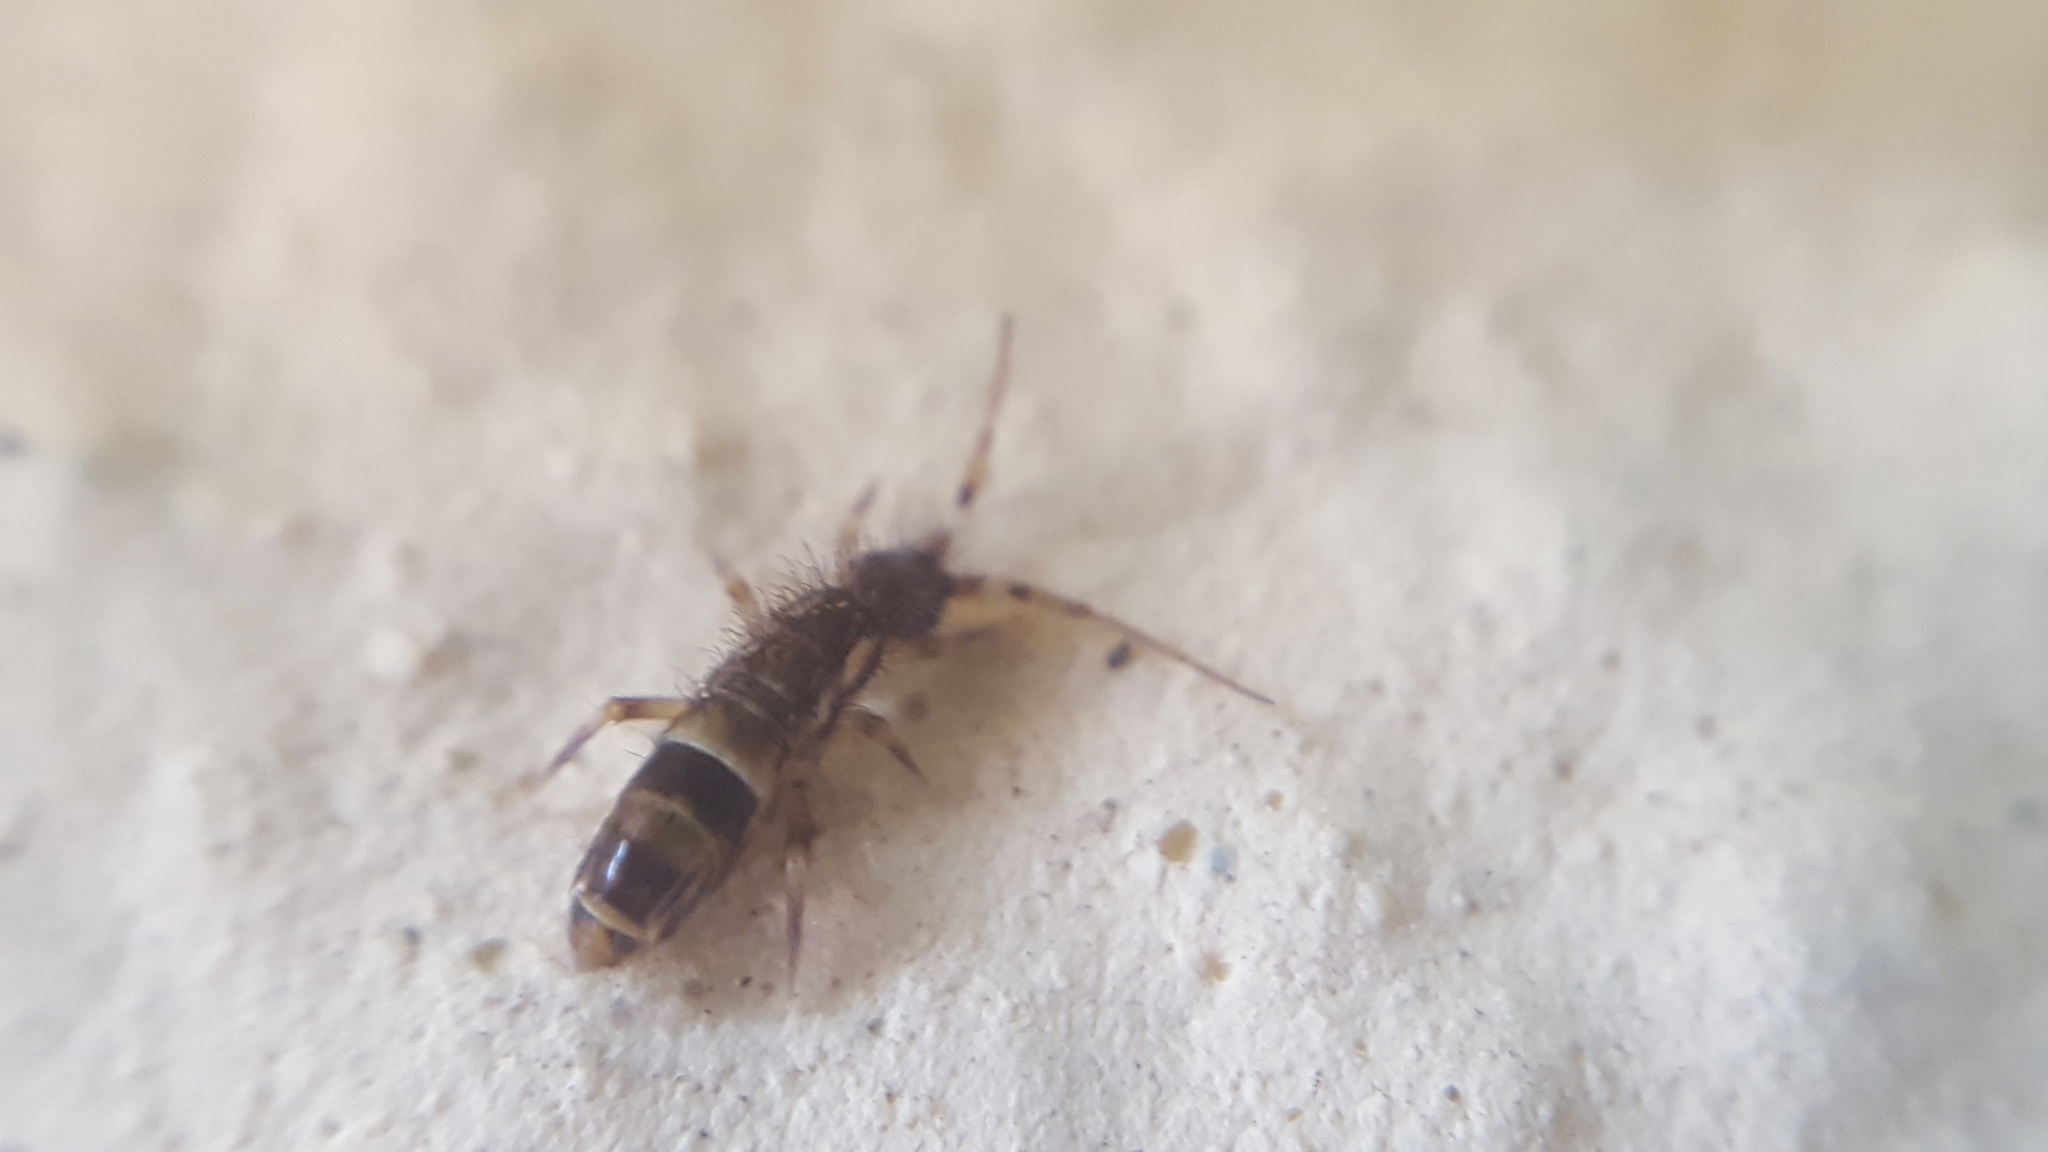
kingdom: Animalia
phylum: Arthropoda
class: Collembola
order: Entomobryomorpha
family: Orchesellidae
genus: Orchesella
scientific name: Orchesella cincta
